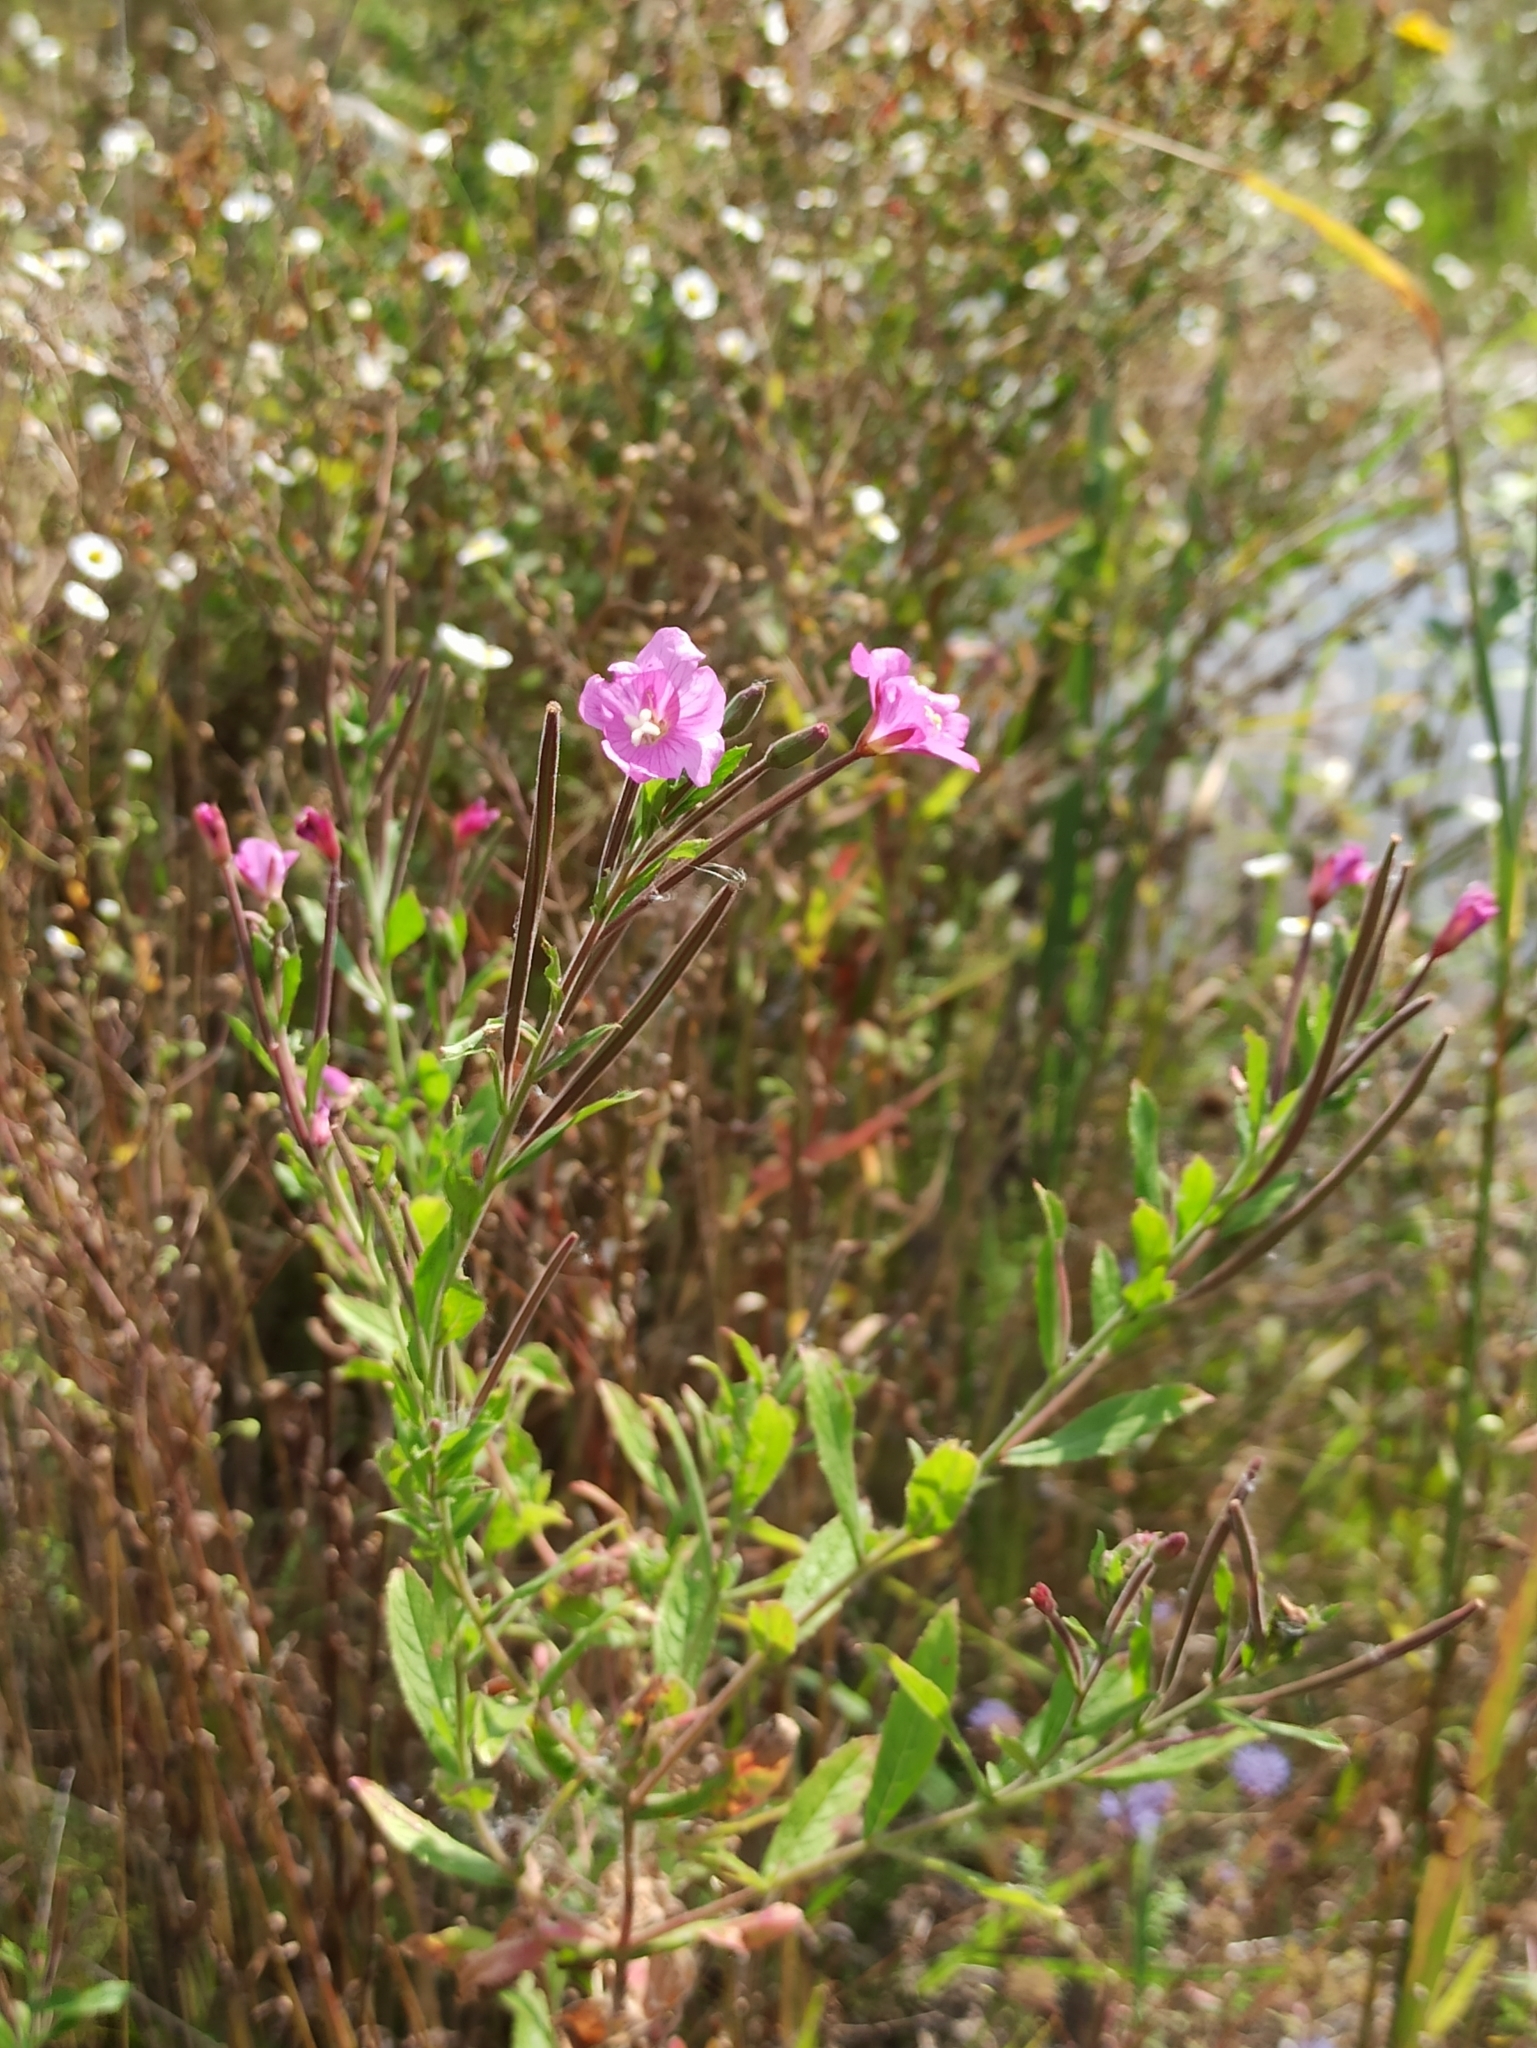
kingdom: Plantae
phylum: Tracheophyta
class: Magnoliopsida
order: Myrtales
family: Onagraceae
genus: Epilobium
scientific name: Epilobium hirsutum
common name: Great willowherb
